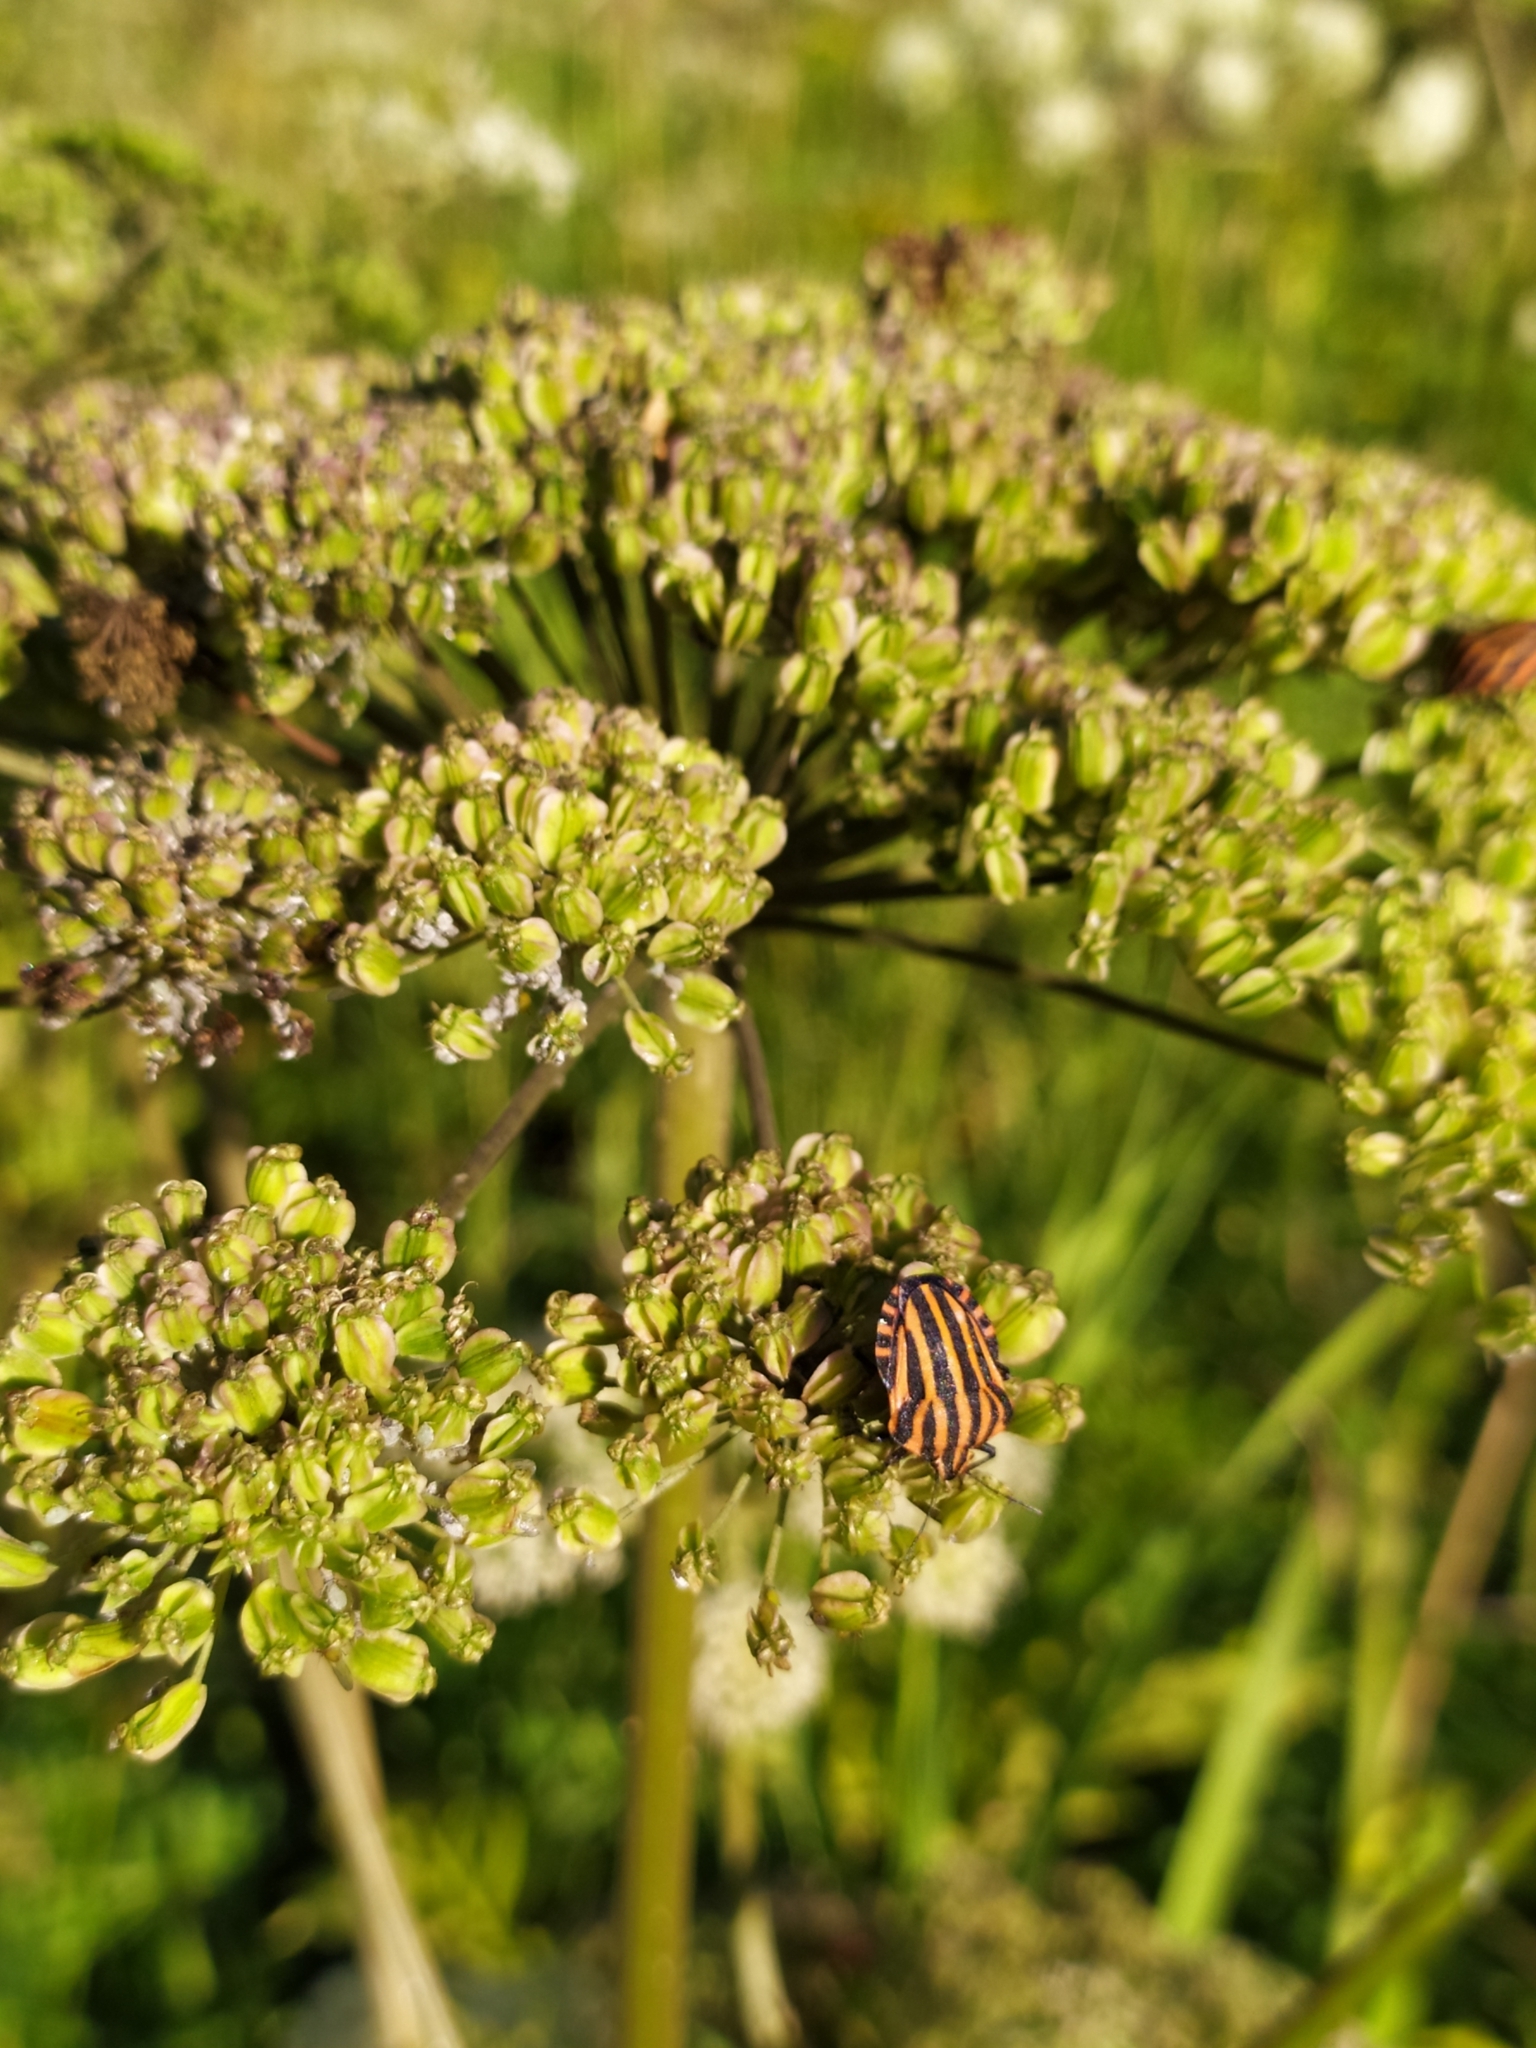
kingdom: Animalia
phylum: Arthropoda
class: Insecta
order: Hemiptera
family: Pentatomidae
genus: Graphosoma
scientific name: Graphosoma italicum
